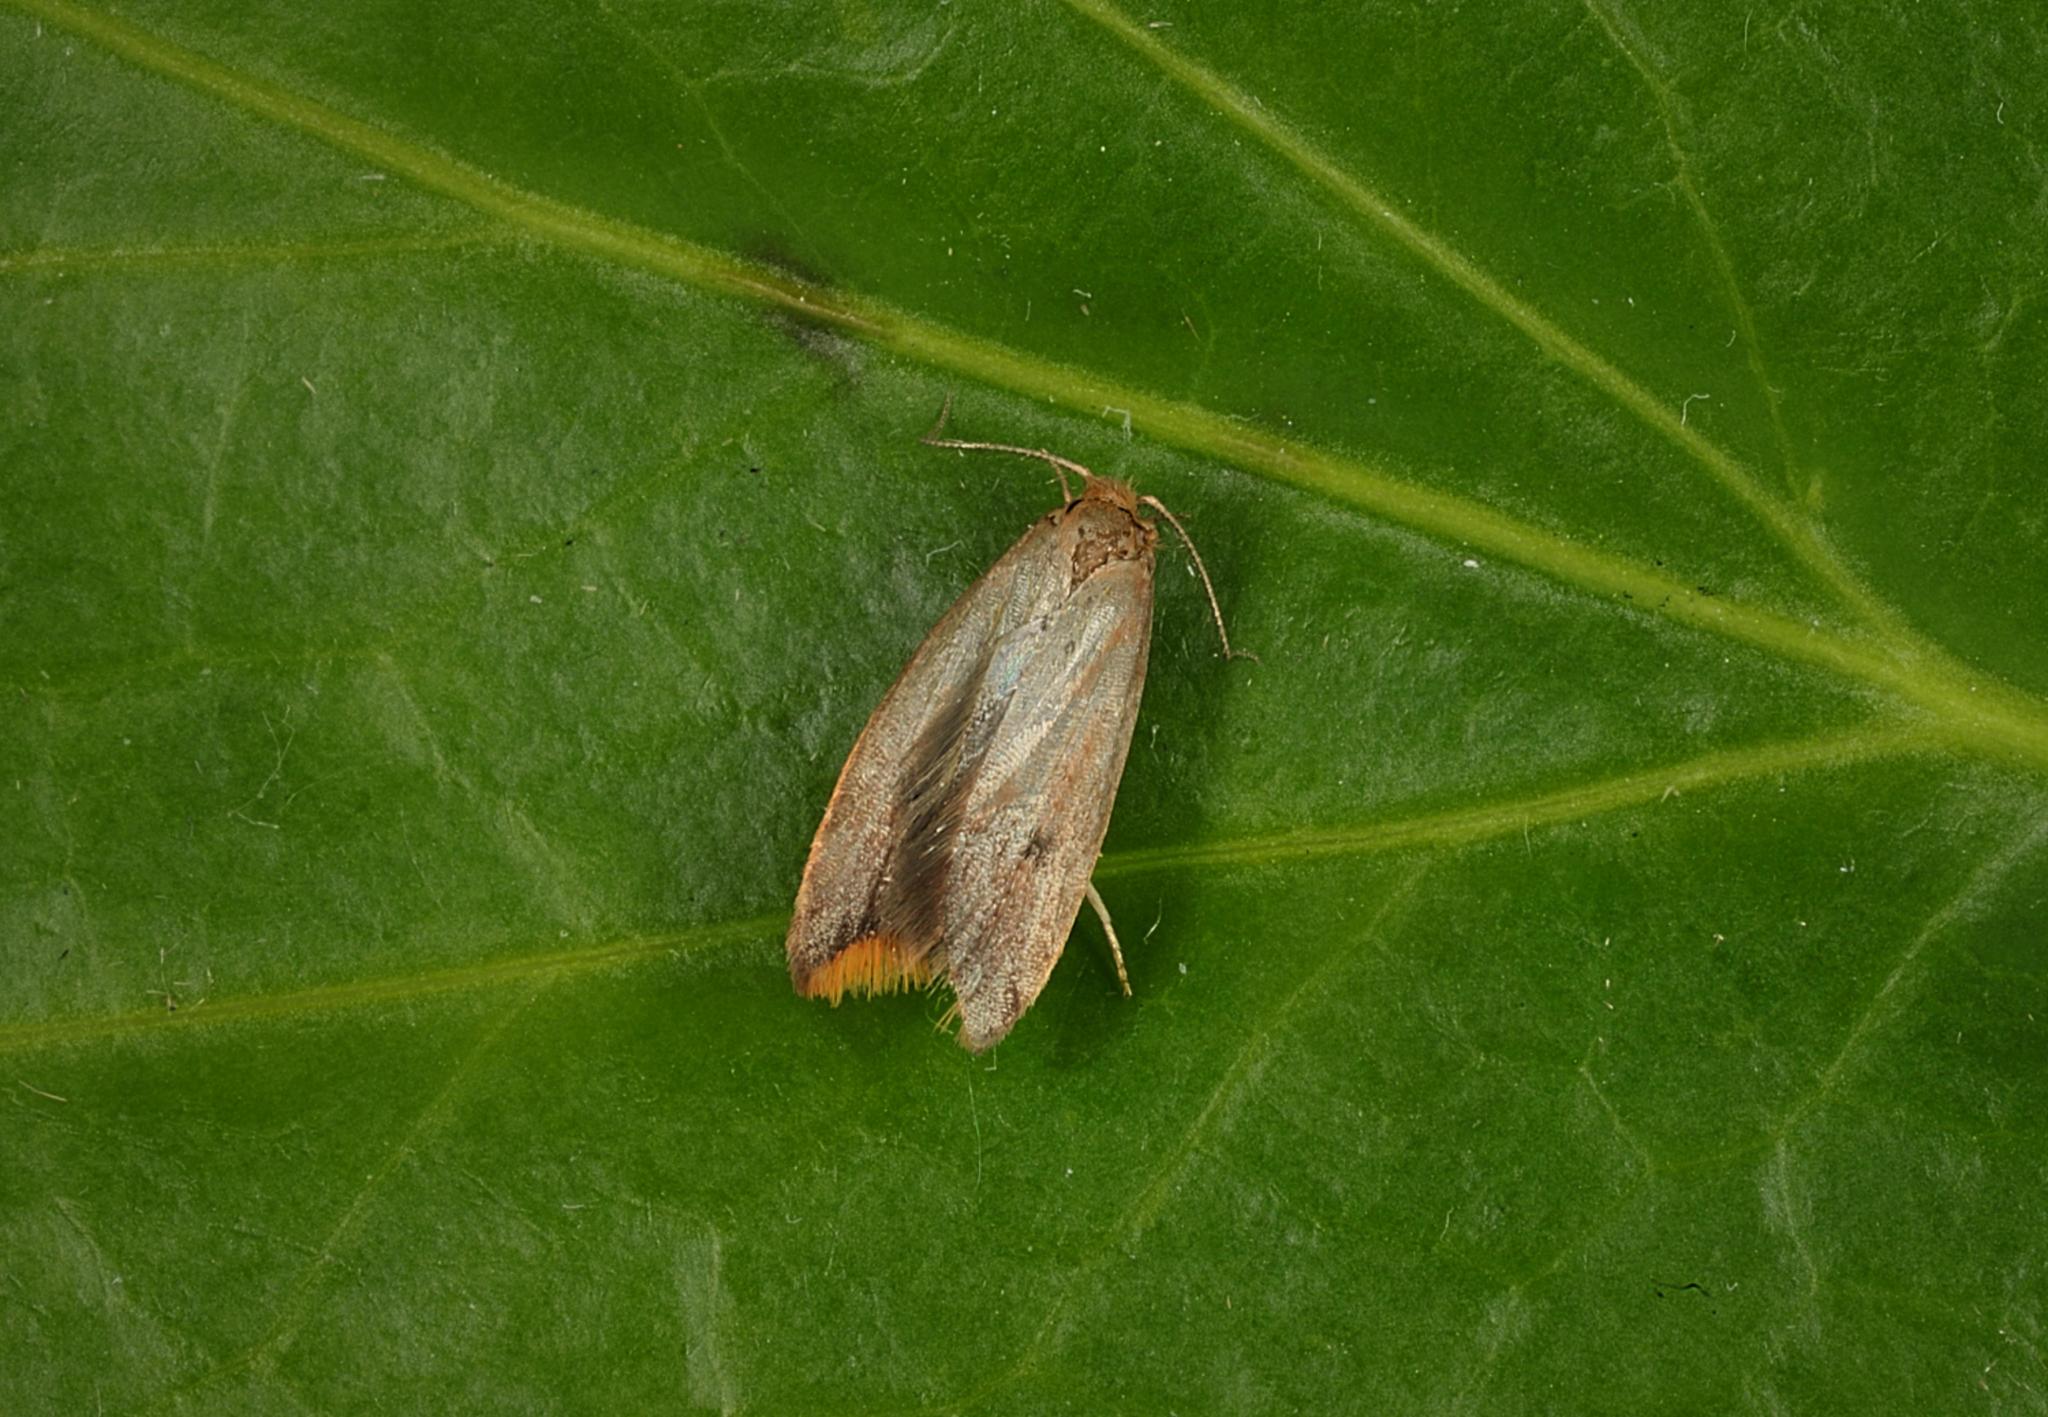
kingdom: Animalia
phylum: Arthropoda
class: Insecta
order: Lepidoptera
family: Oecophoridae
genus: Tachystola
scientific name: Tachystola acroxantha
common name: Ruddy streak
